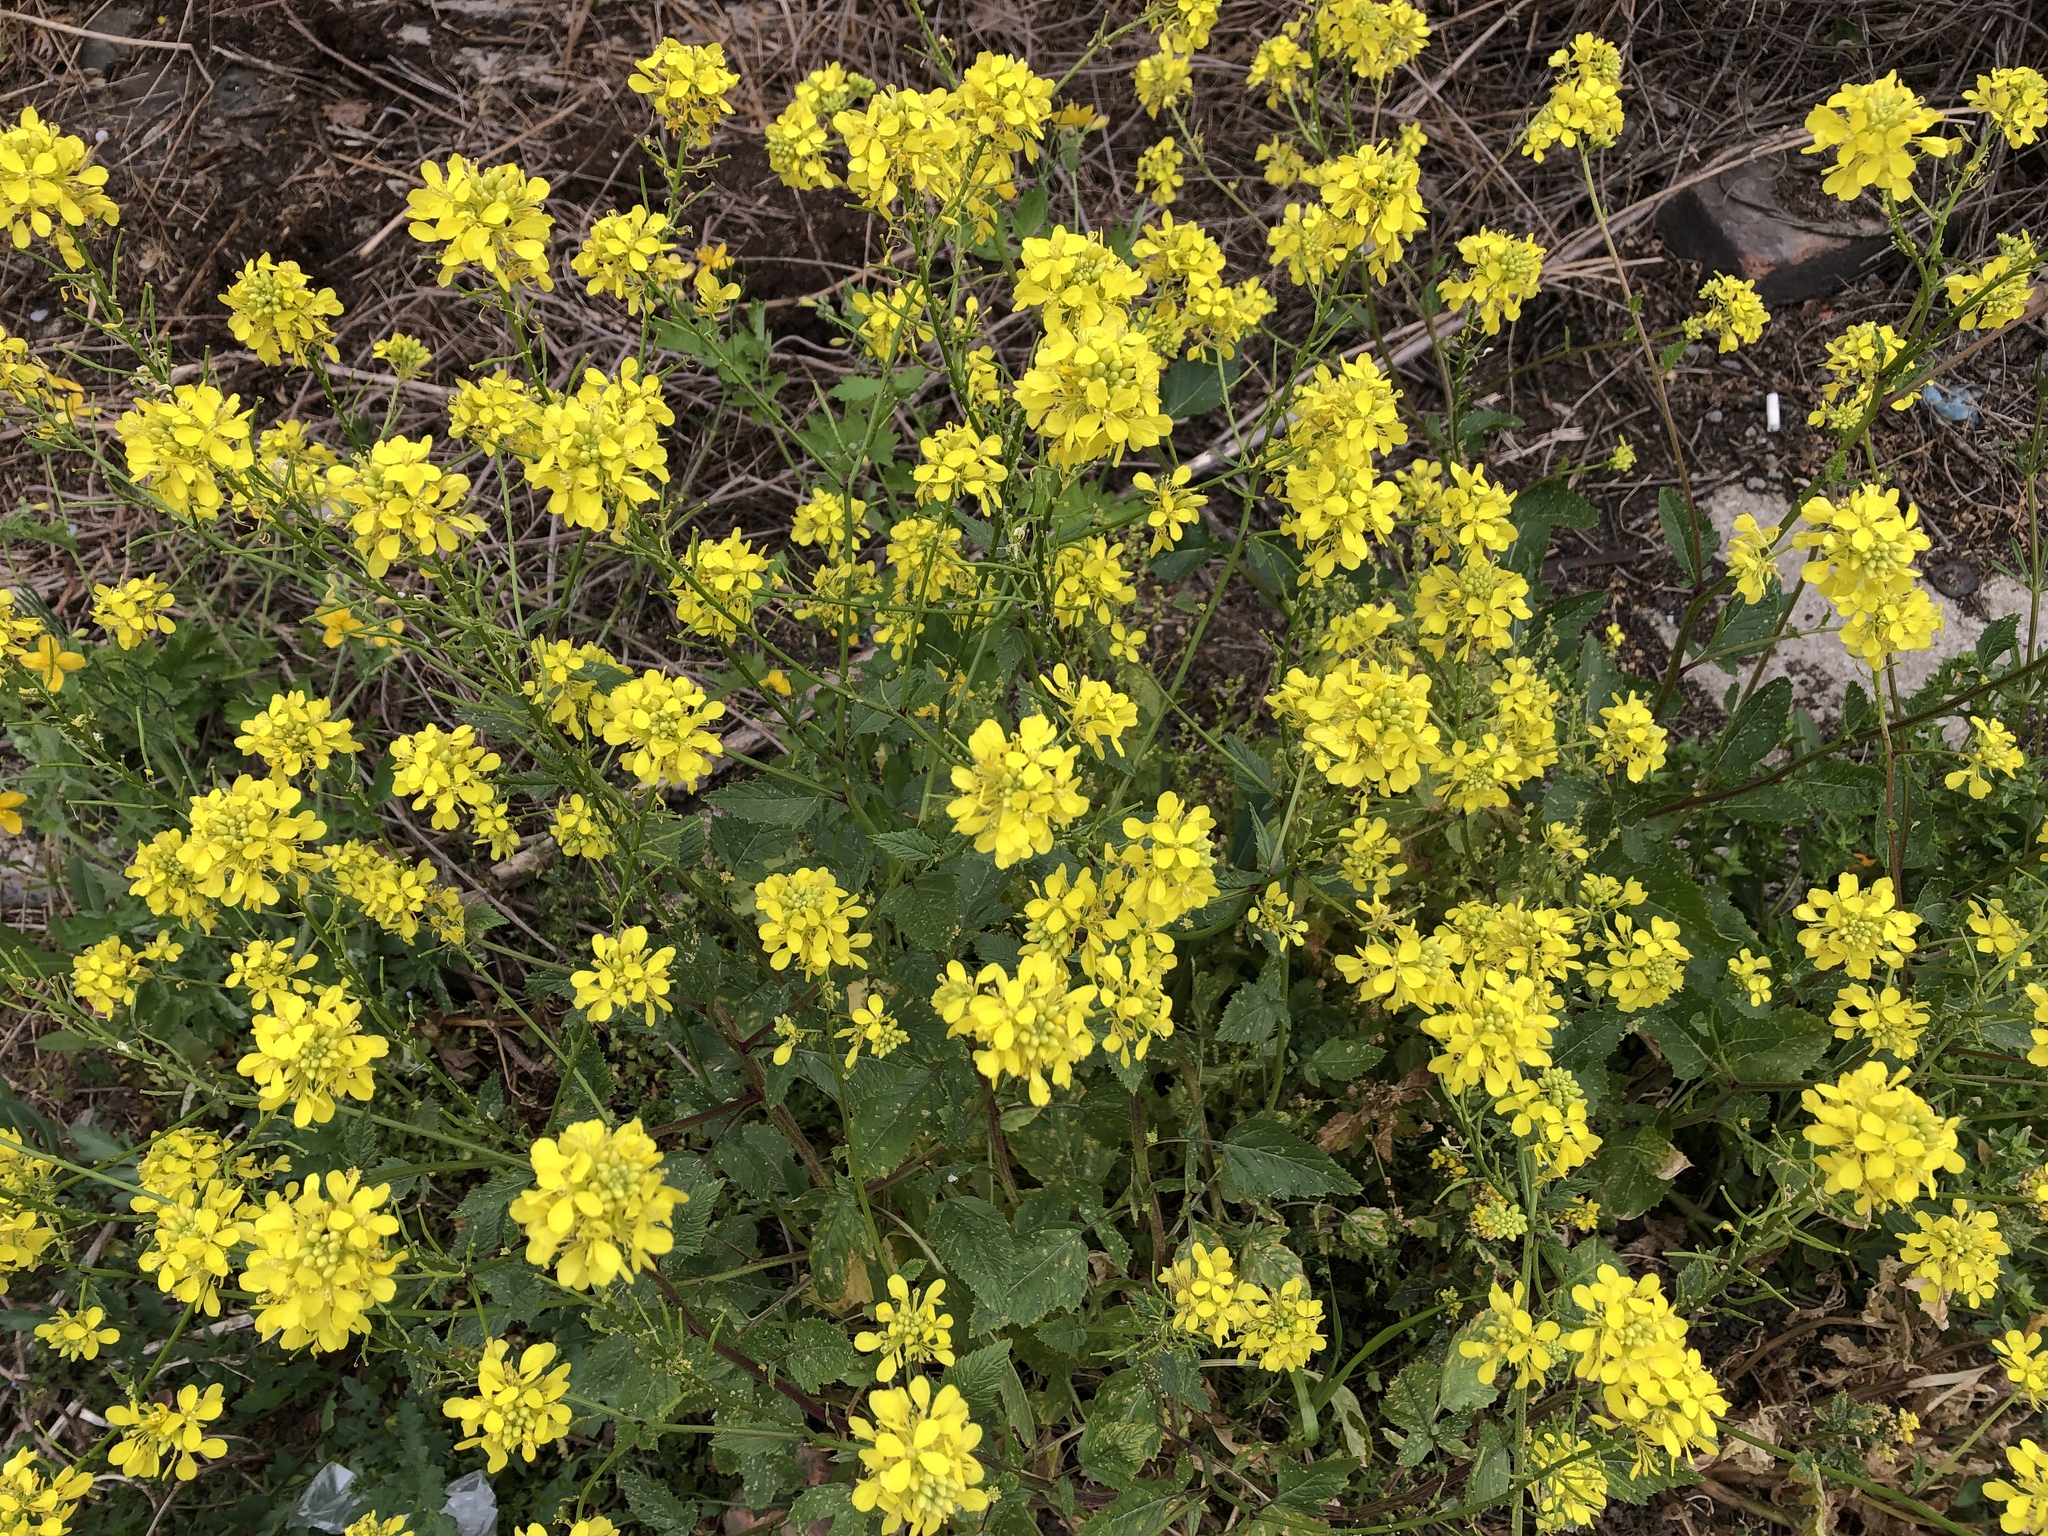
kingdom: Plantae
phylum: Tracheophyta
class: Magnoliopsida
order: Brassicales
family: Brassicaceae
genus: Sinapis
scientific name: Sinapis arvensis
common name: Charlock
